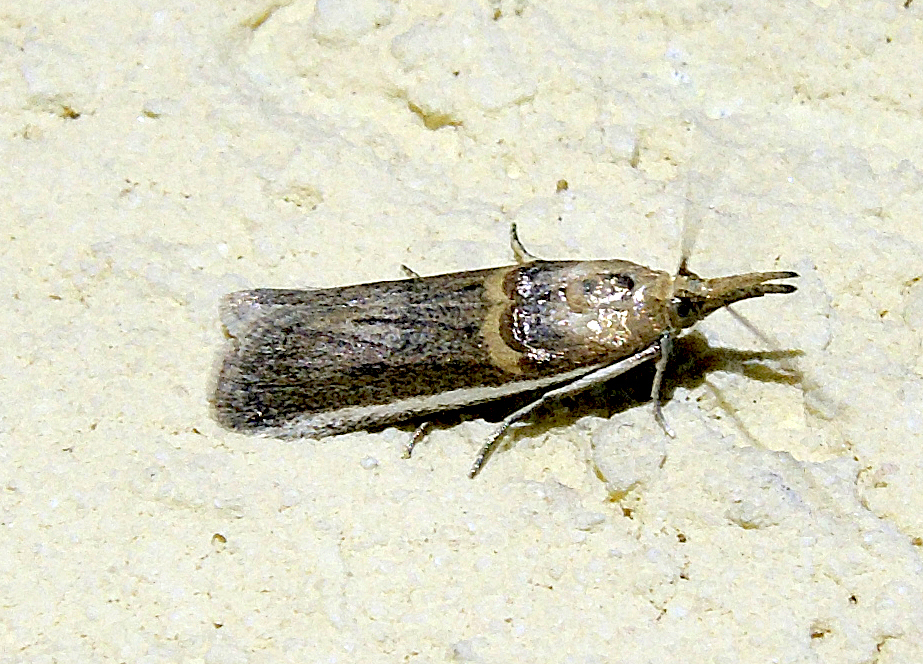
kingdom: Animalia
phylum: Arthropoda
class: Insecta
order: Lepidoptera
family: Pyralidae
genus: Etiella
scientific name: Etiella zinckenella
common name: Gold-banded etiella moth
